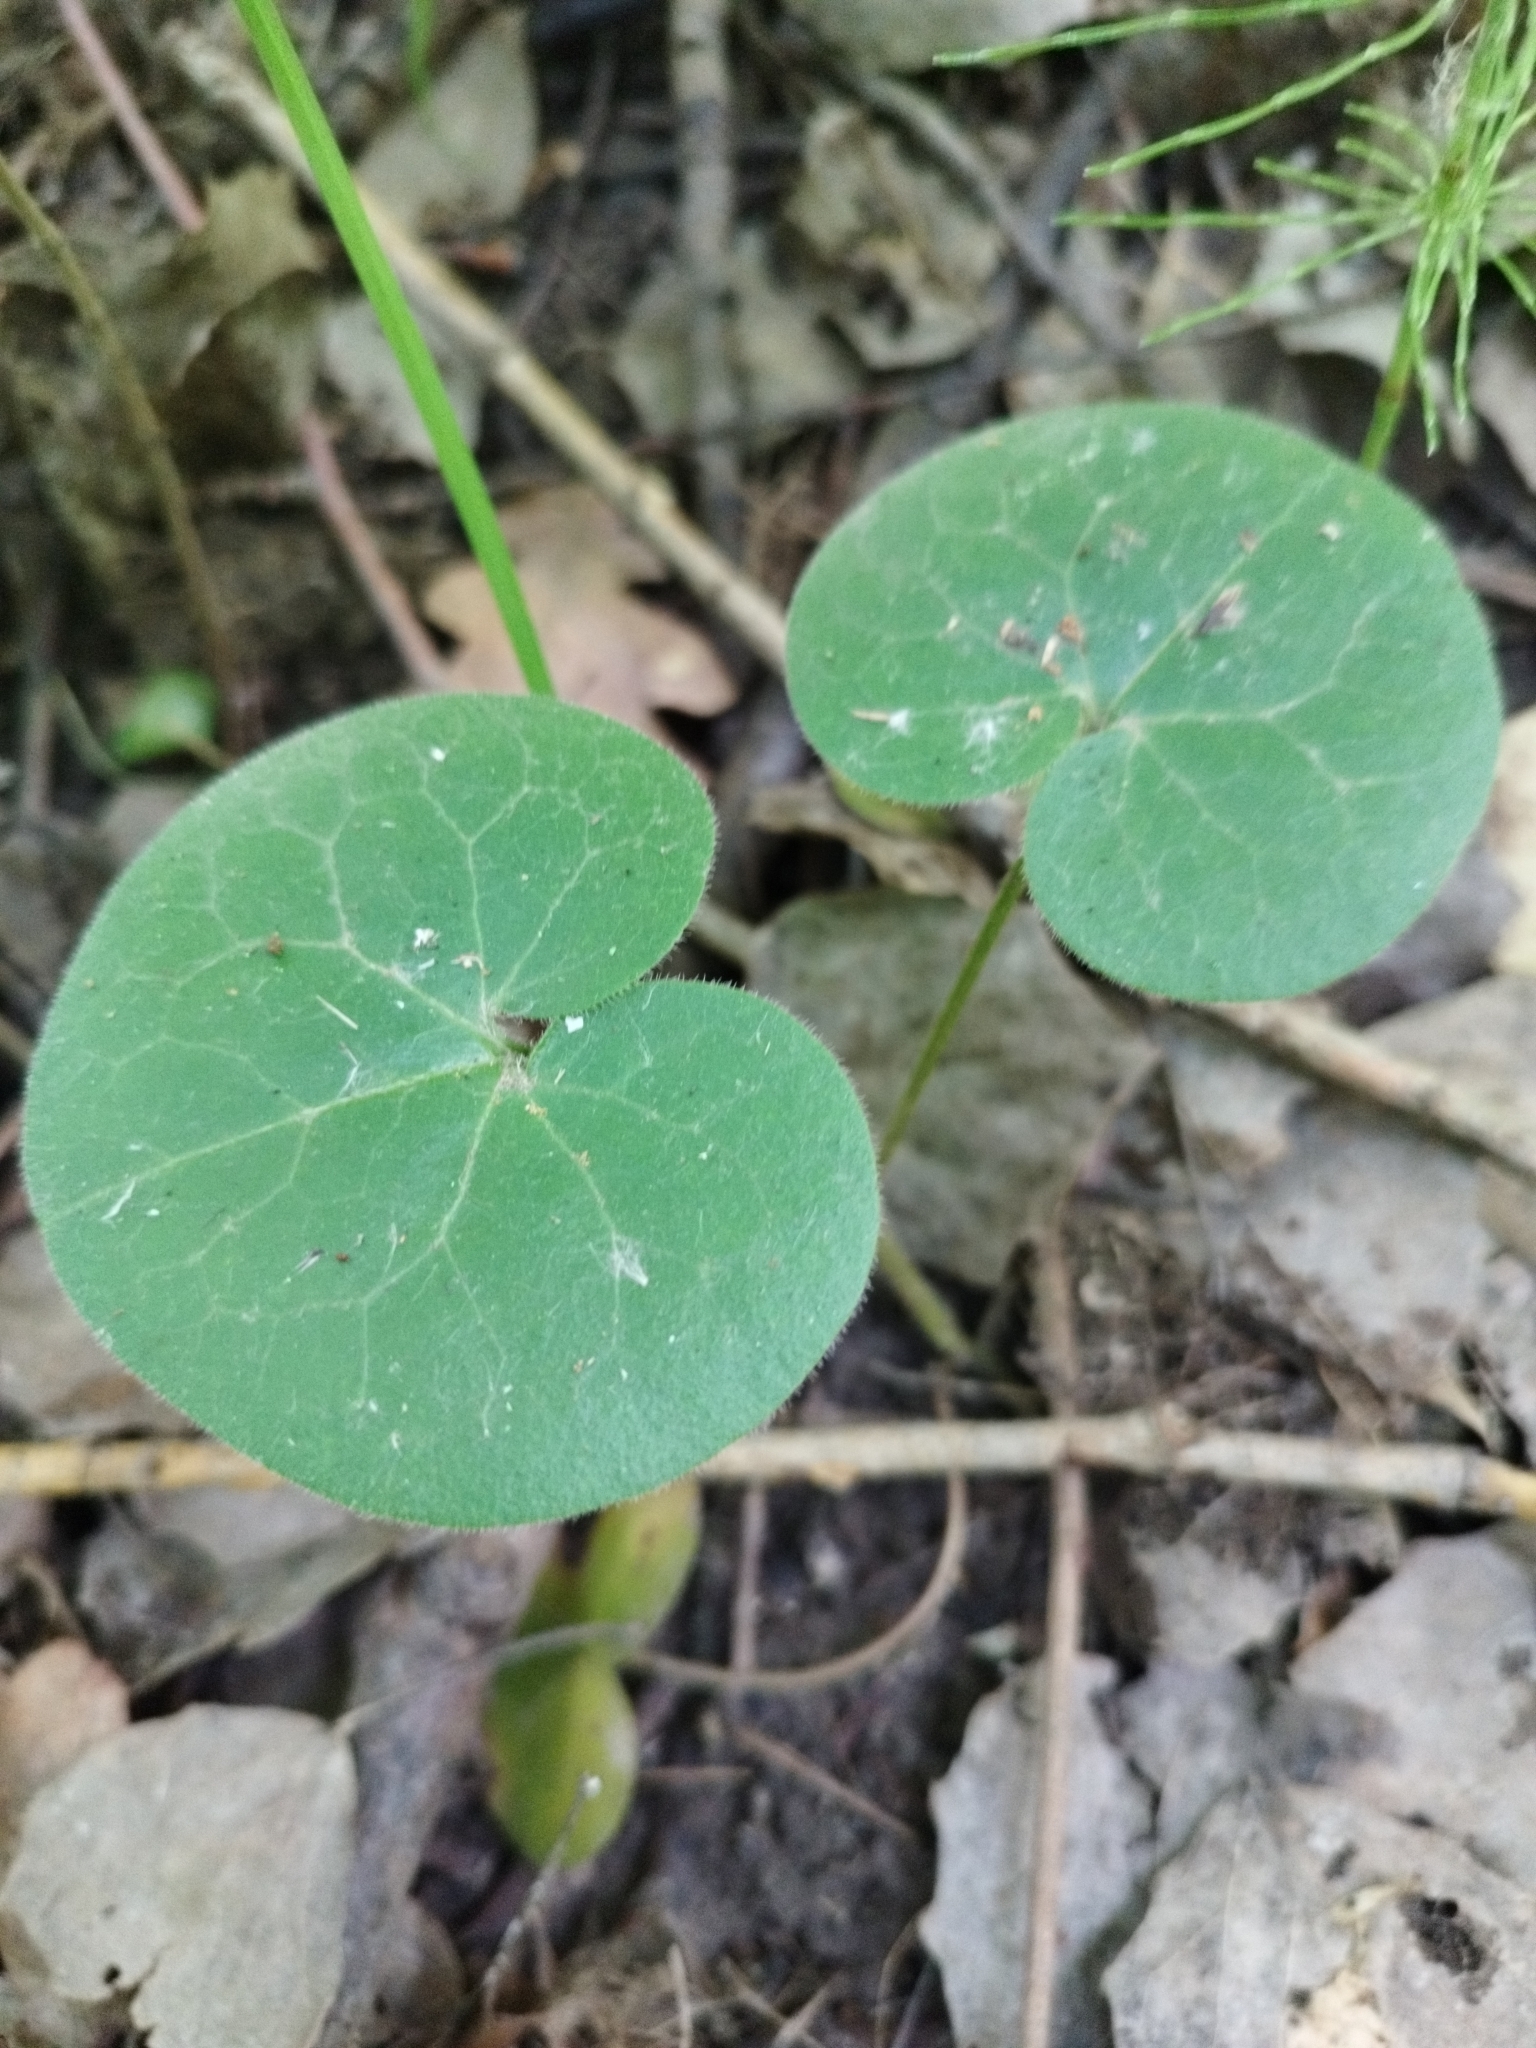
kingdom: Plantae
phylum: Tracheophyta
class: Magnoliopsida
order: Piperales
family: Aristolochiaceae
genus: Asarum
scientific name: Asarum europaeum
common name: Asarabacca
